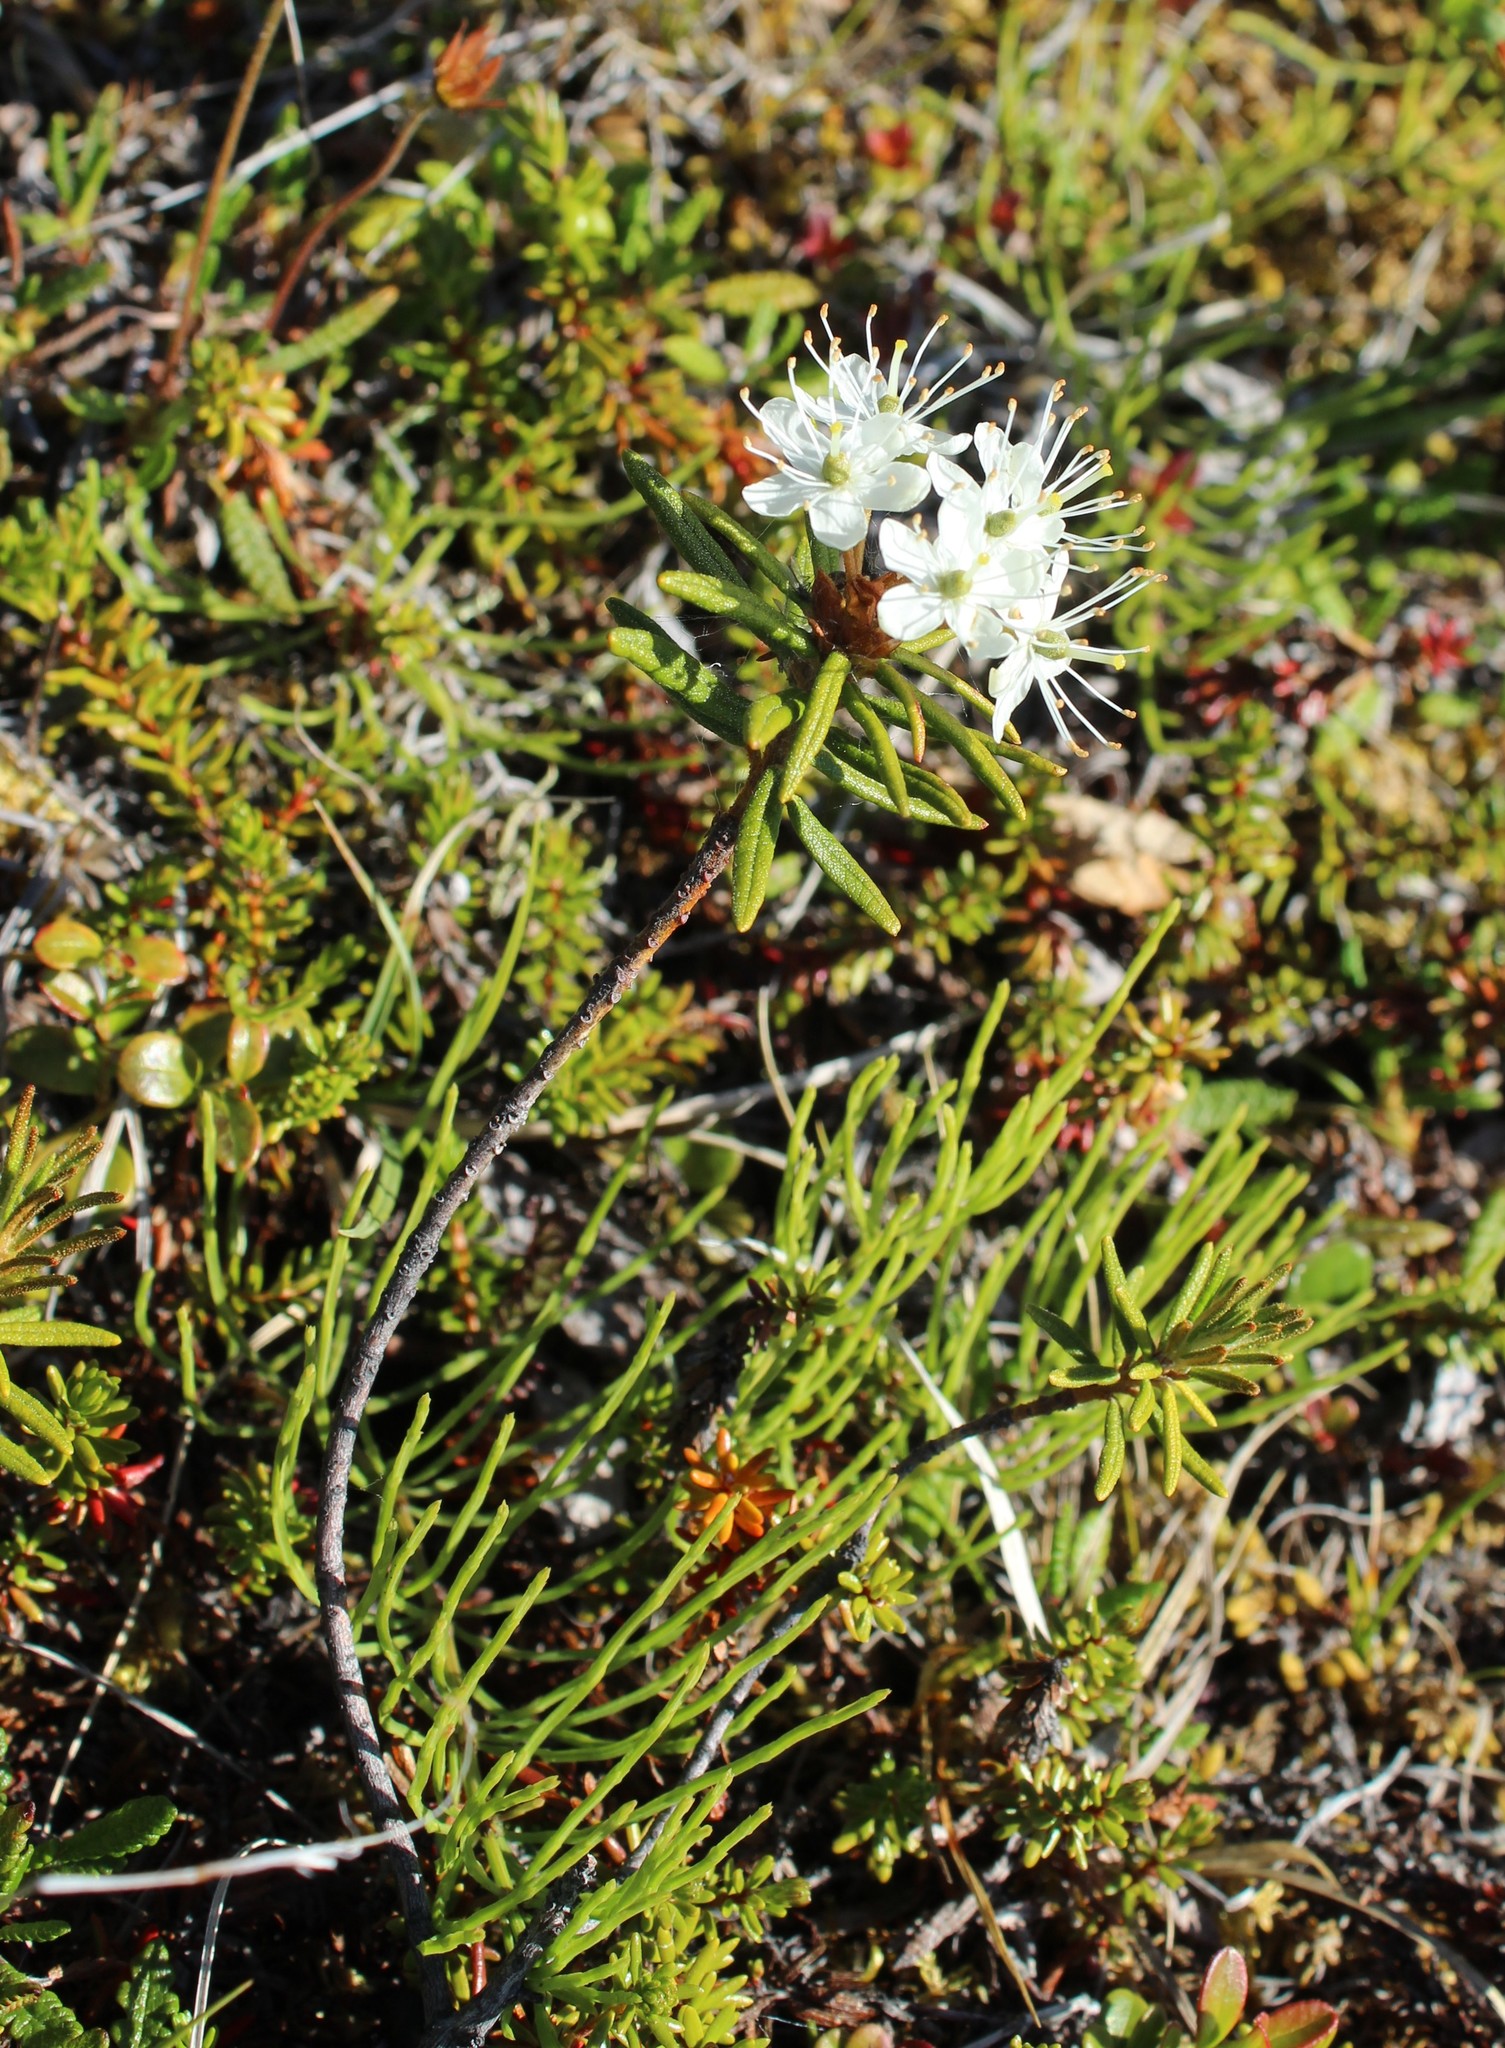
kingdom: Plantae
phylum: Tracheophyta
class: Magnoliopsida
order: Ericales
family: Ericaceae
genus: Rhododendron
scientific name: Rhododendron tomentosum
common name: Marsh labrador tea
